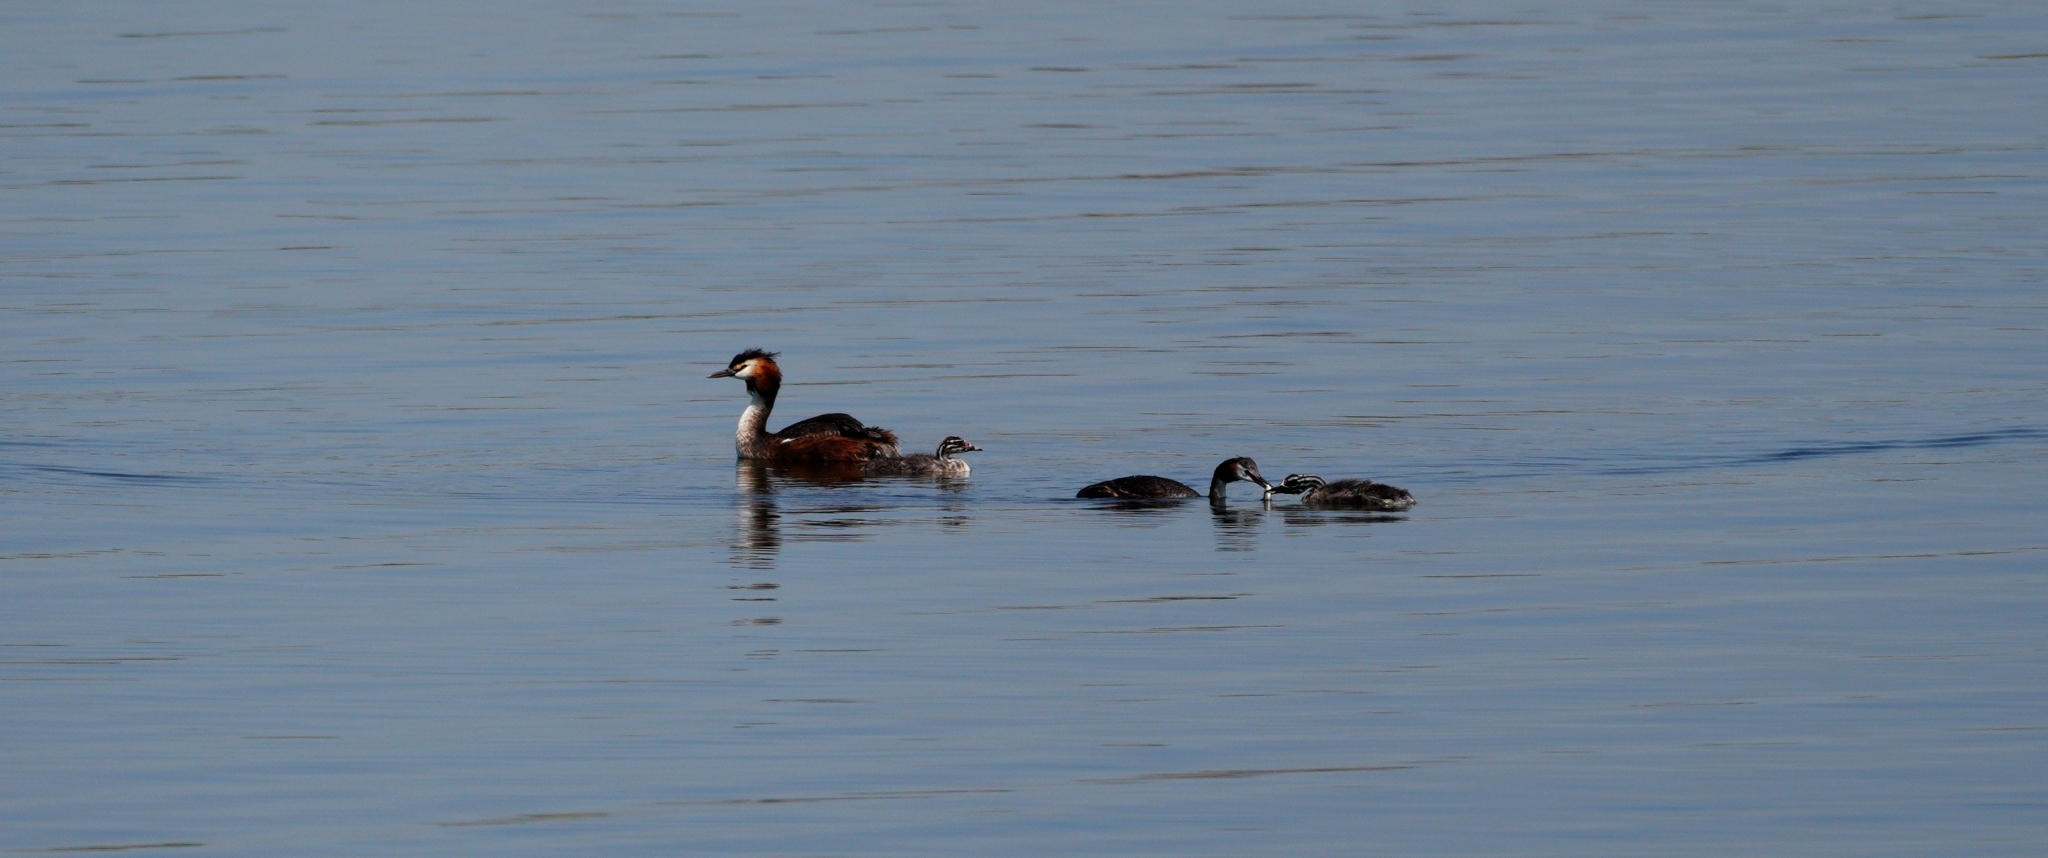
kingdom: Animalia
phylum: Chordata
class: Aves
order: Podicipediformes
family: Podicipedidae
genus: Podiceps
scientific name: Podiceps cristatus
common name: Great crested grebe
